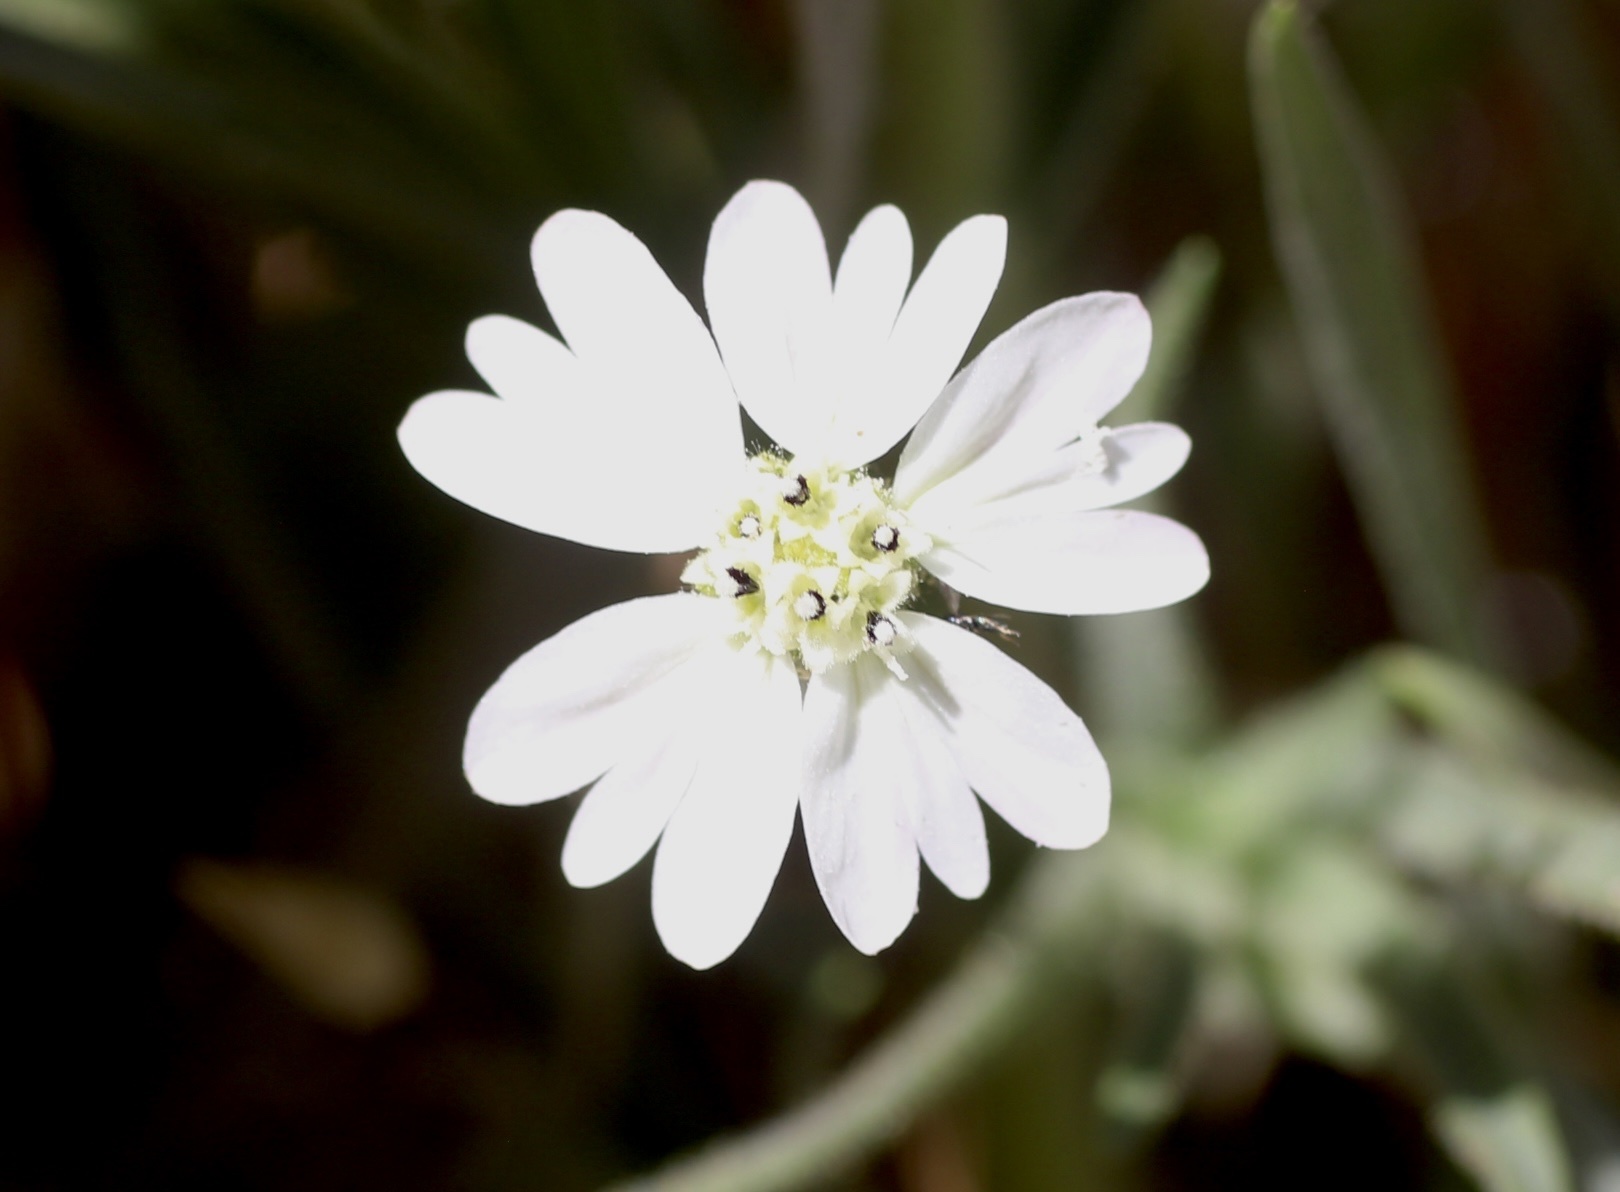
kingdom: Plantae
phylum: Tracheophyta
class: Magnoliopsida
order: Asterales
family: Asteraceae
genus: Hemizonia
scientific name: Hemizonia congesta
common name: Hayfield tarweed
